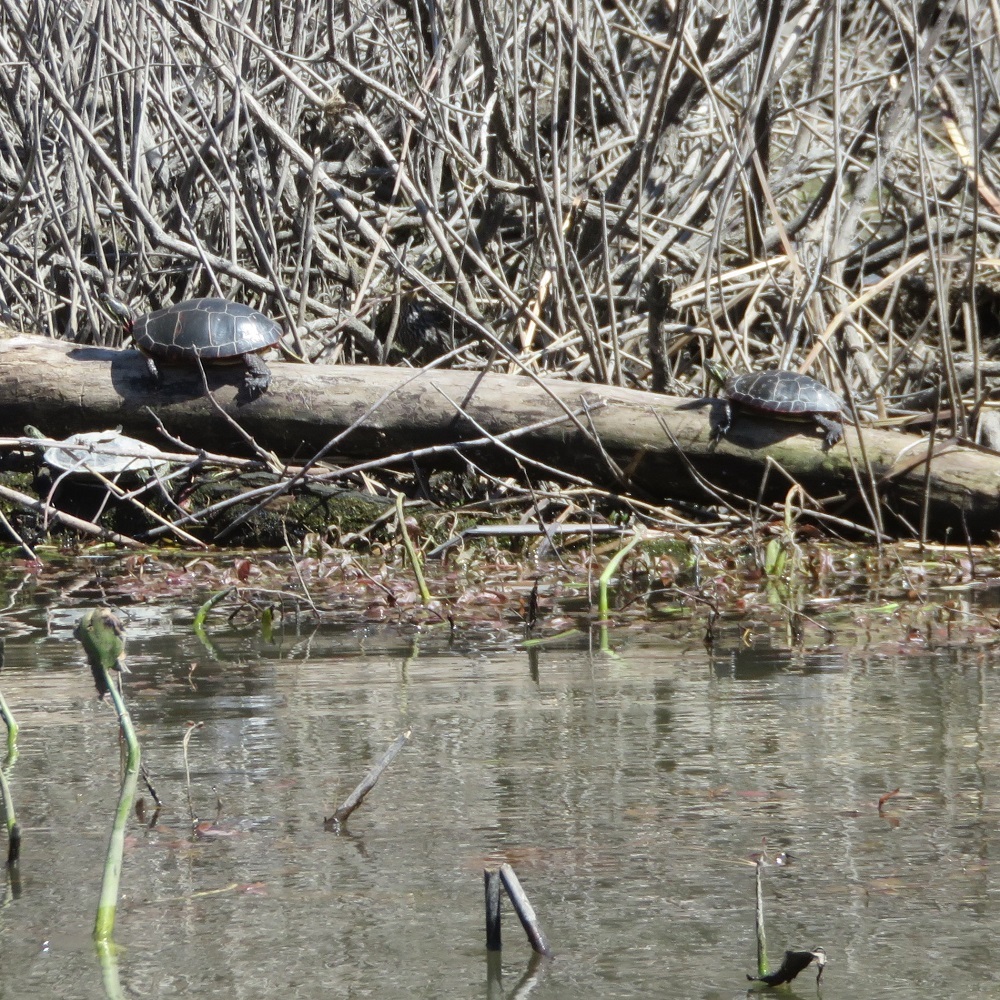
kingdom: Animalia
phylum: Chordata
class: Testudines
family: Emydidae
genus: Chrysemys
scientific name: Chrysemys picta
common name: Painted turtle
